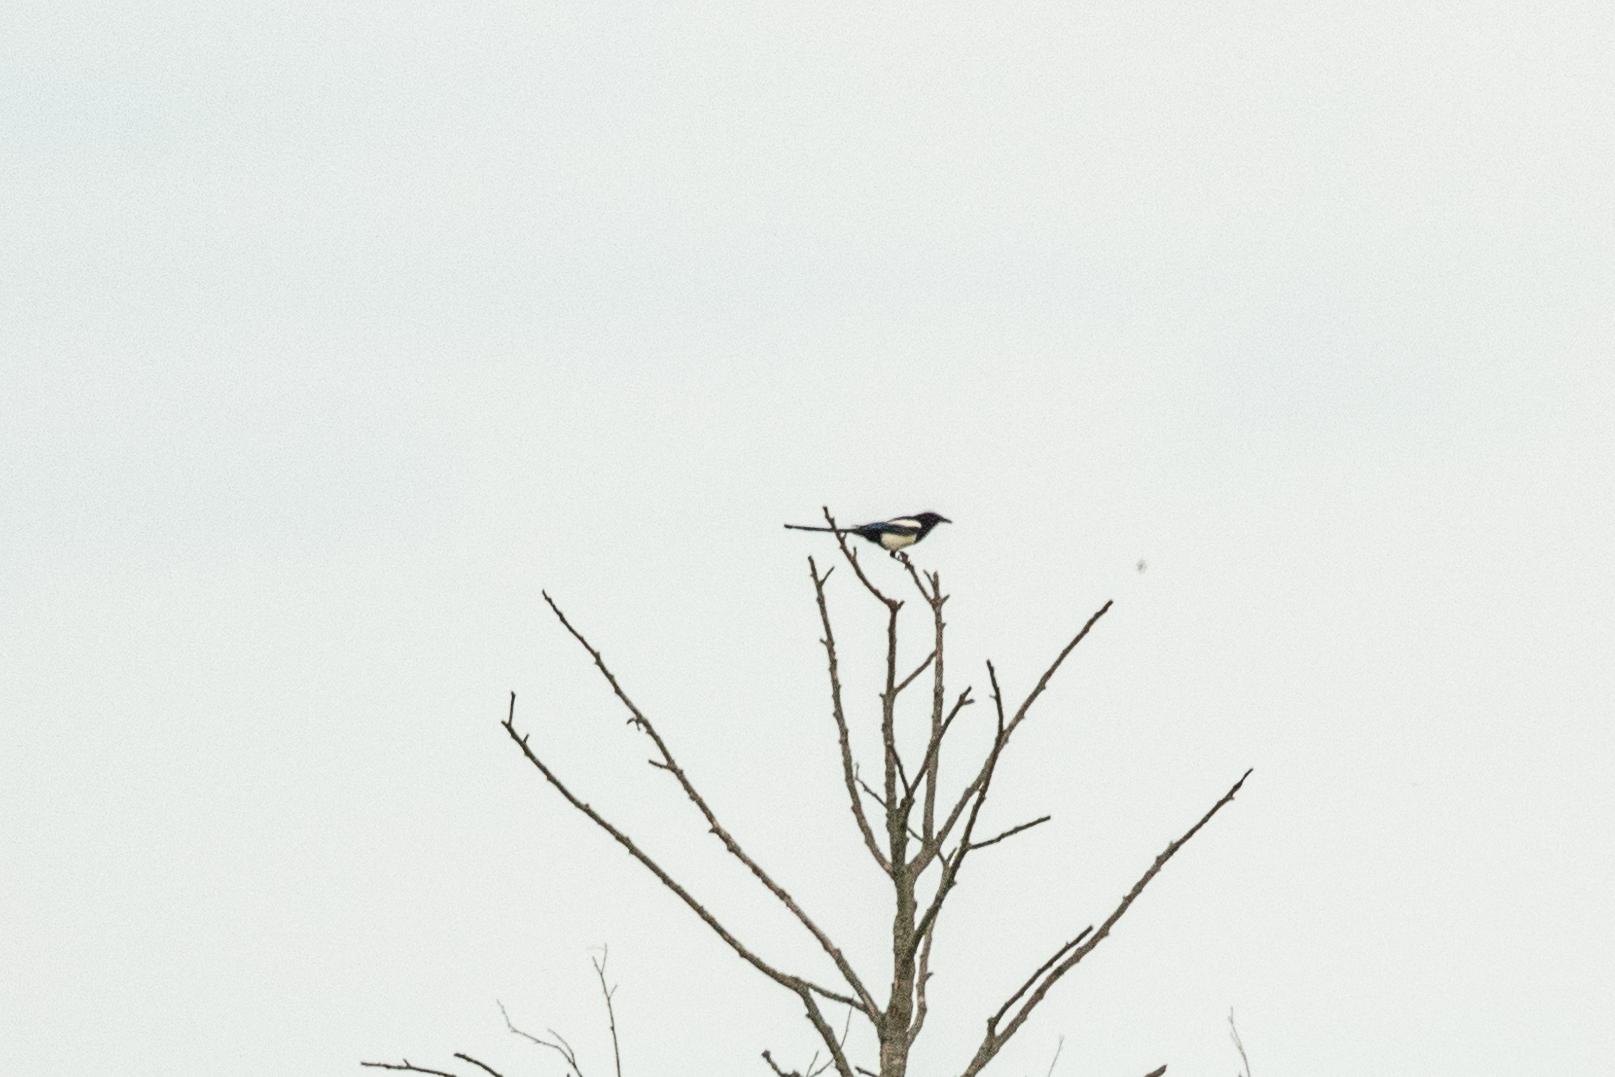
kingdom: Animalia
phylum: Chordata
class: Aves
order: Passeriformes
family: Corvidae
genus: Pica
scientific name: Pica pica
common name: Eurasian magpie
